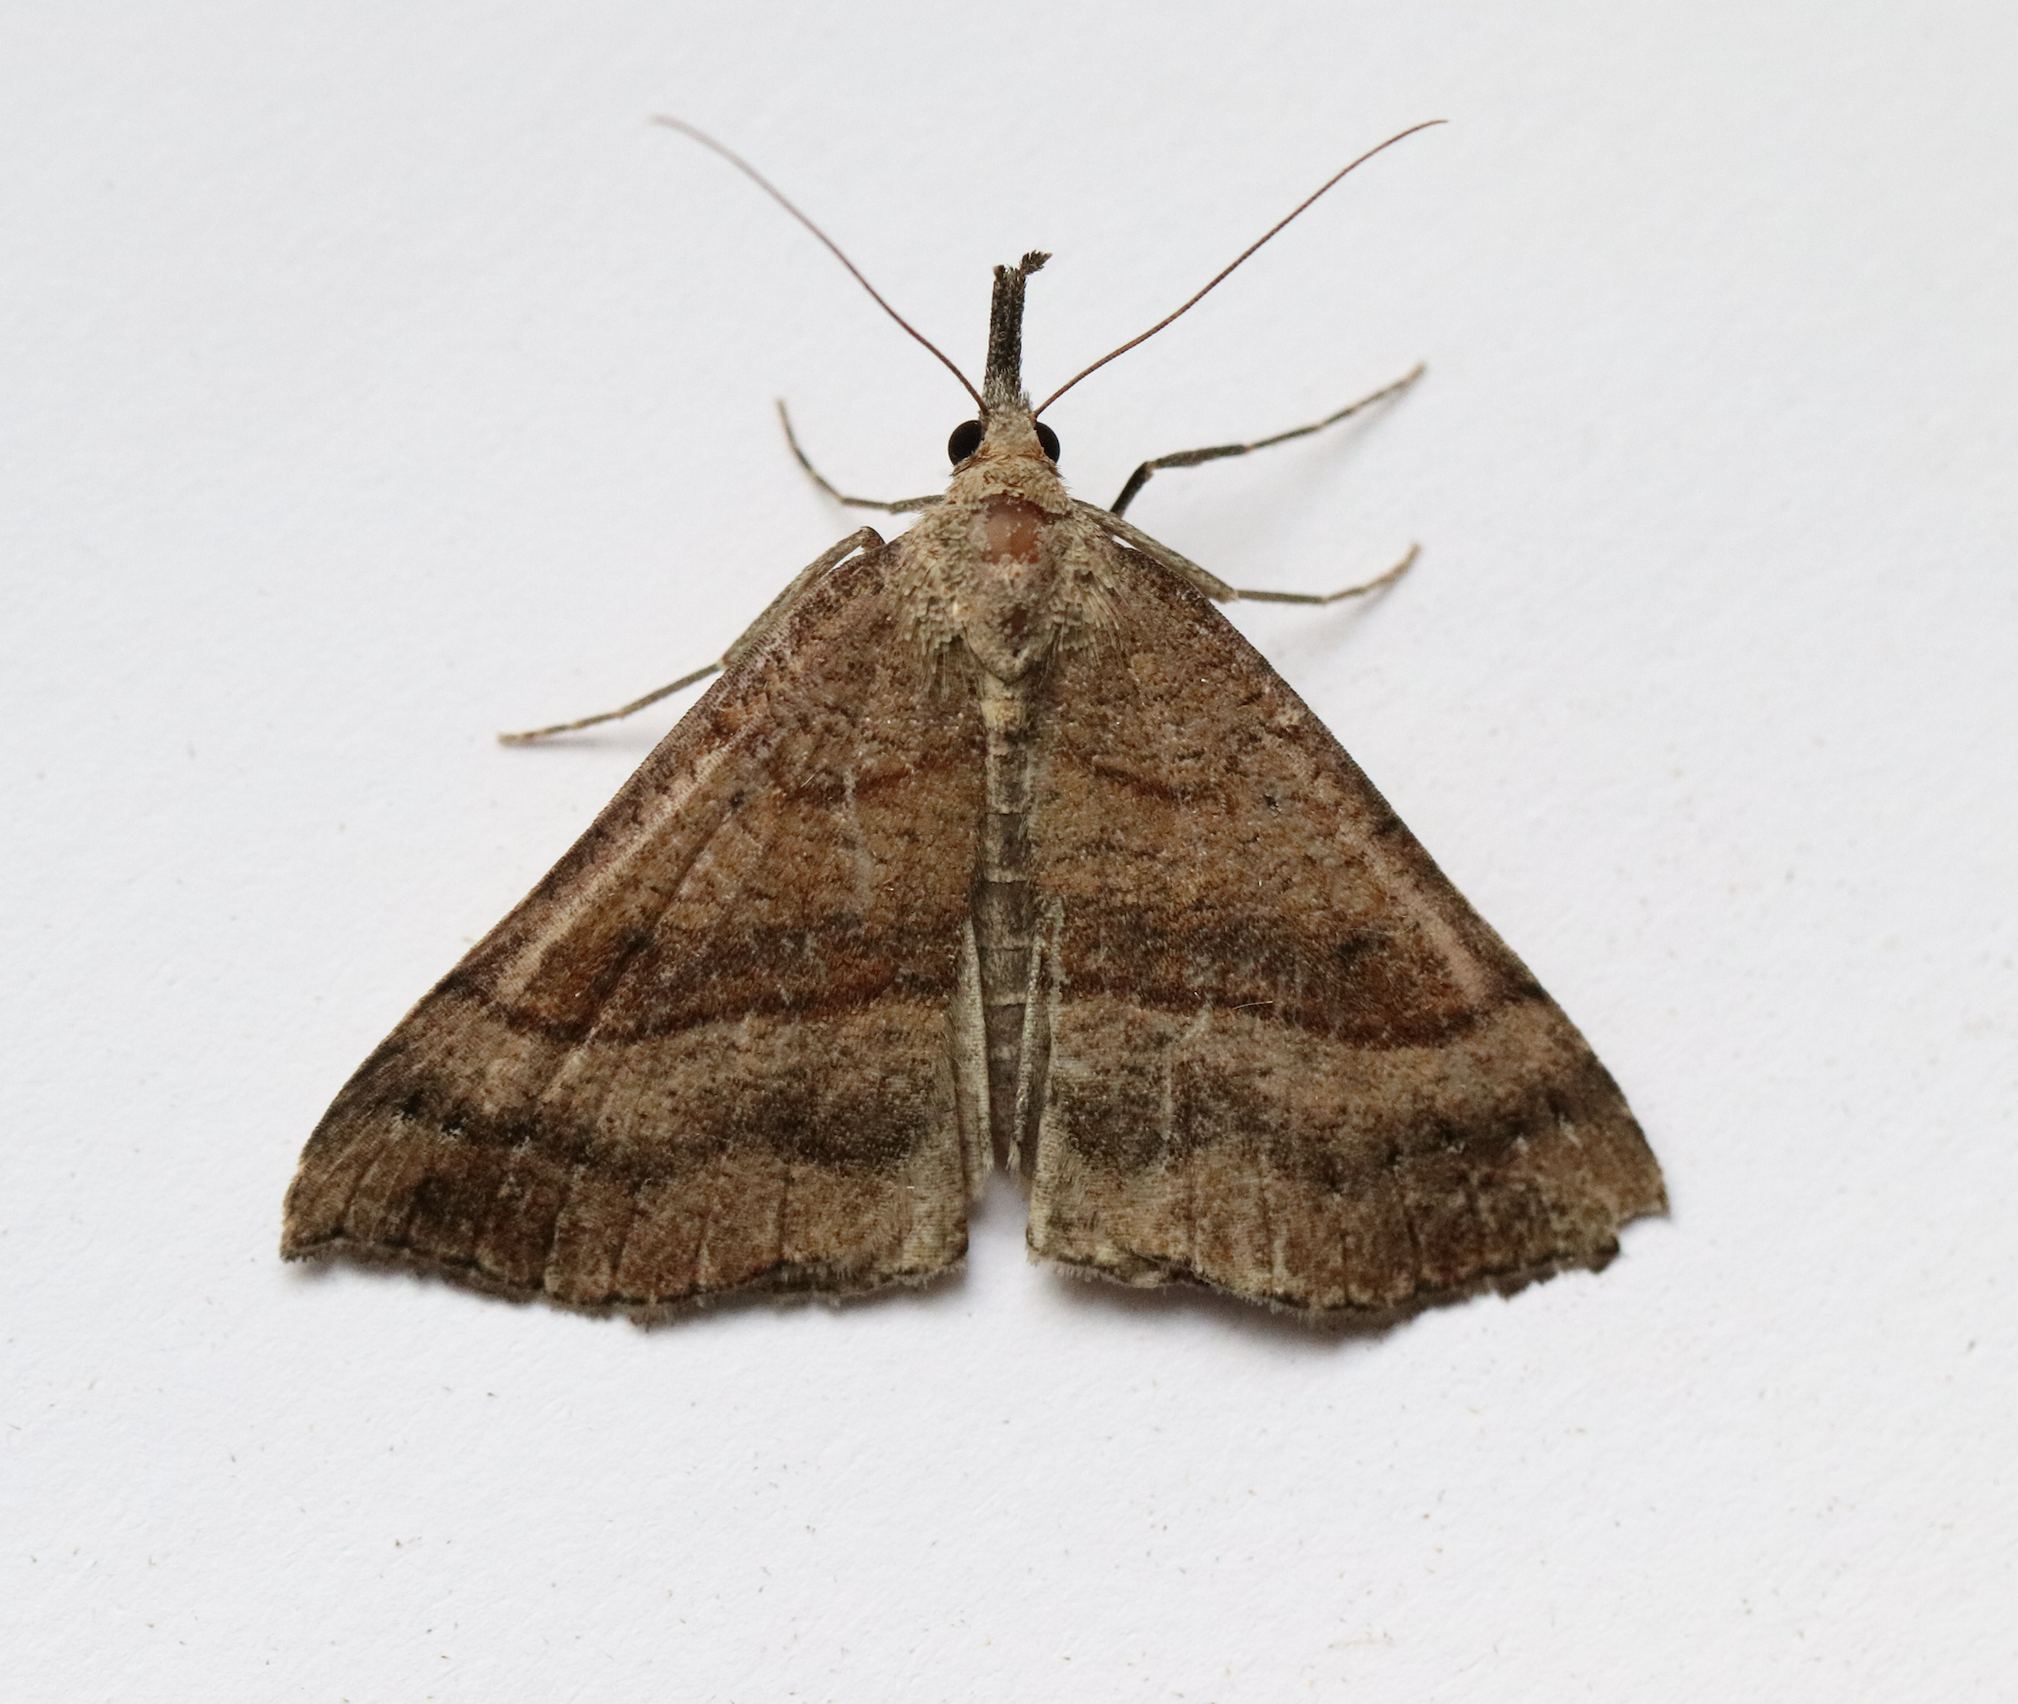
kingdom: Animalia
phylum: Arthropoda
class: Insecta
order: Lepidoptera
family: Erebidae
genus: Hypena
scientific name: Hypena proboscidalis
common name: Snout
